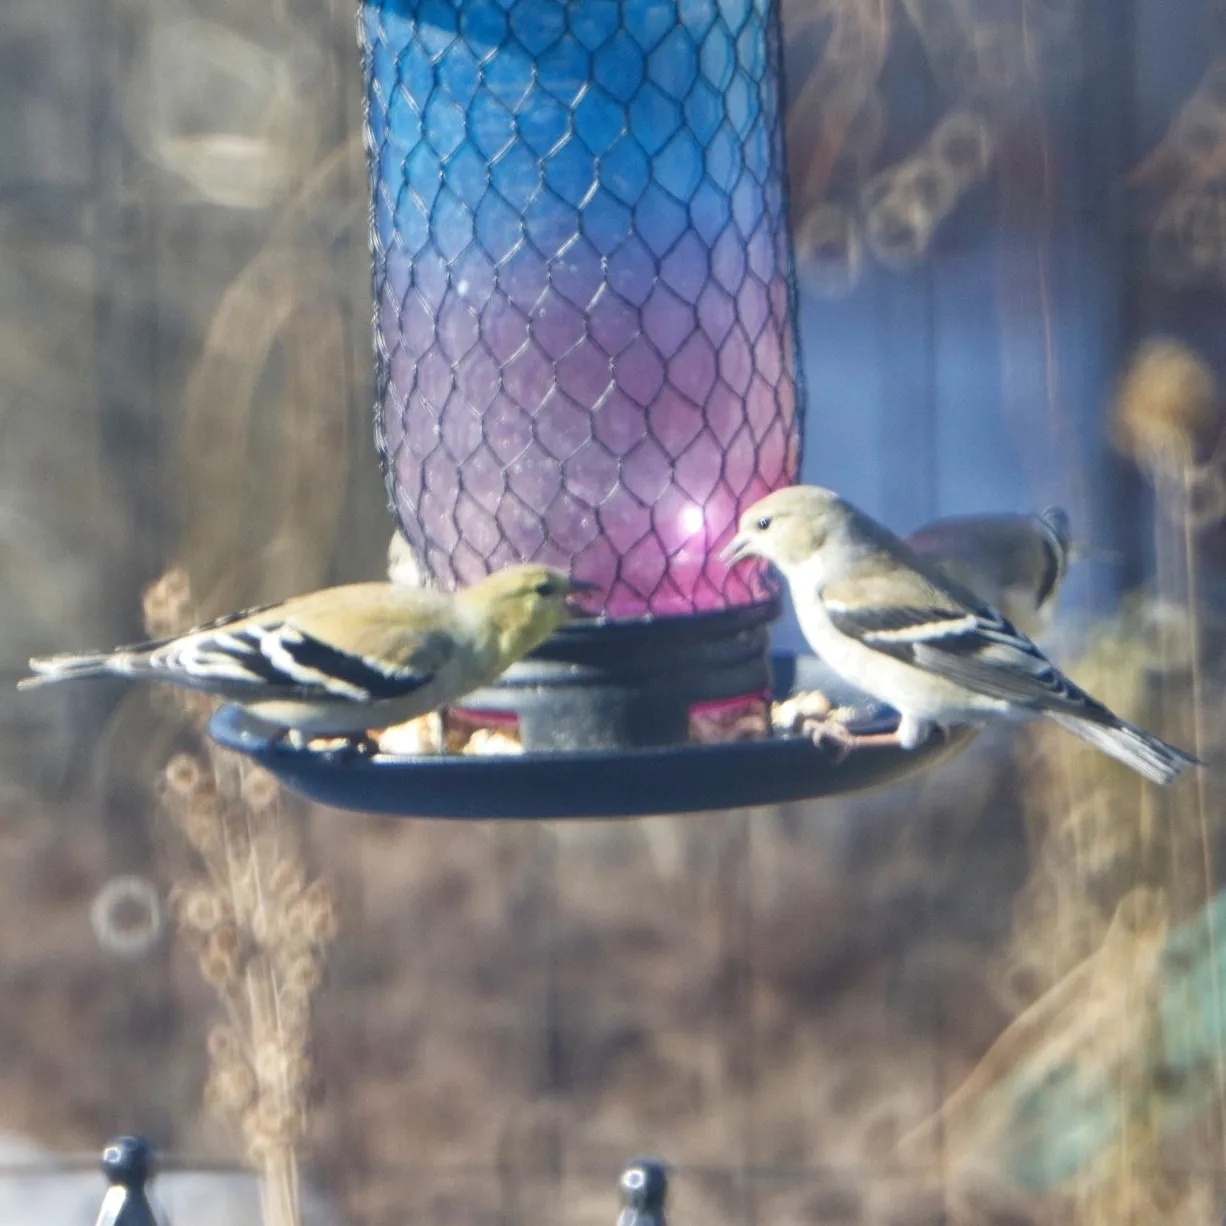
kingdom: Animalia
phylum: Chordata
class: Aves
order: Passeriformes
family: Fringillidae
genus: Spinus
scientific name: Spinus tristis
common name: American goldfinch
